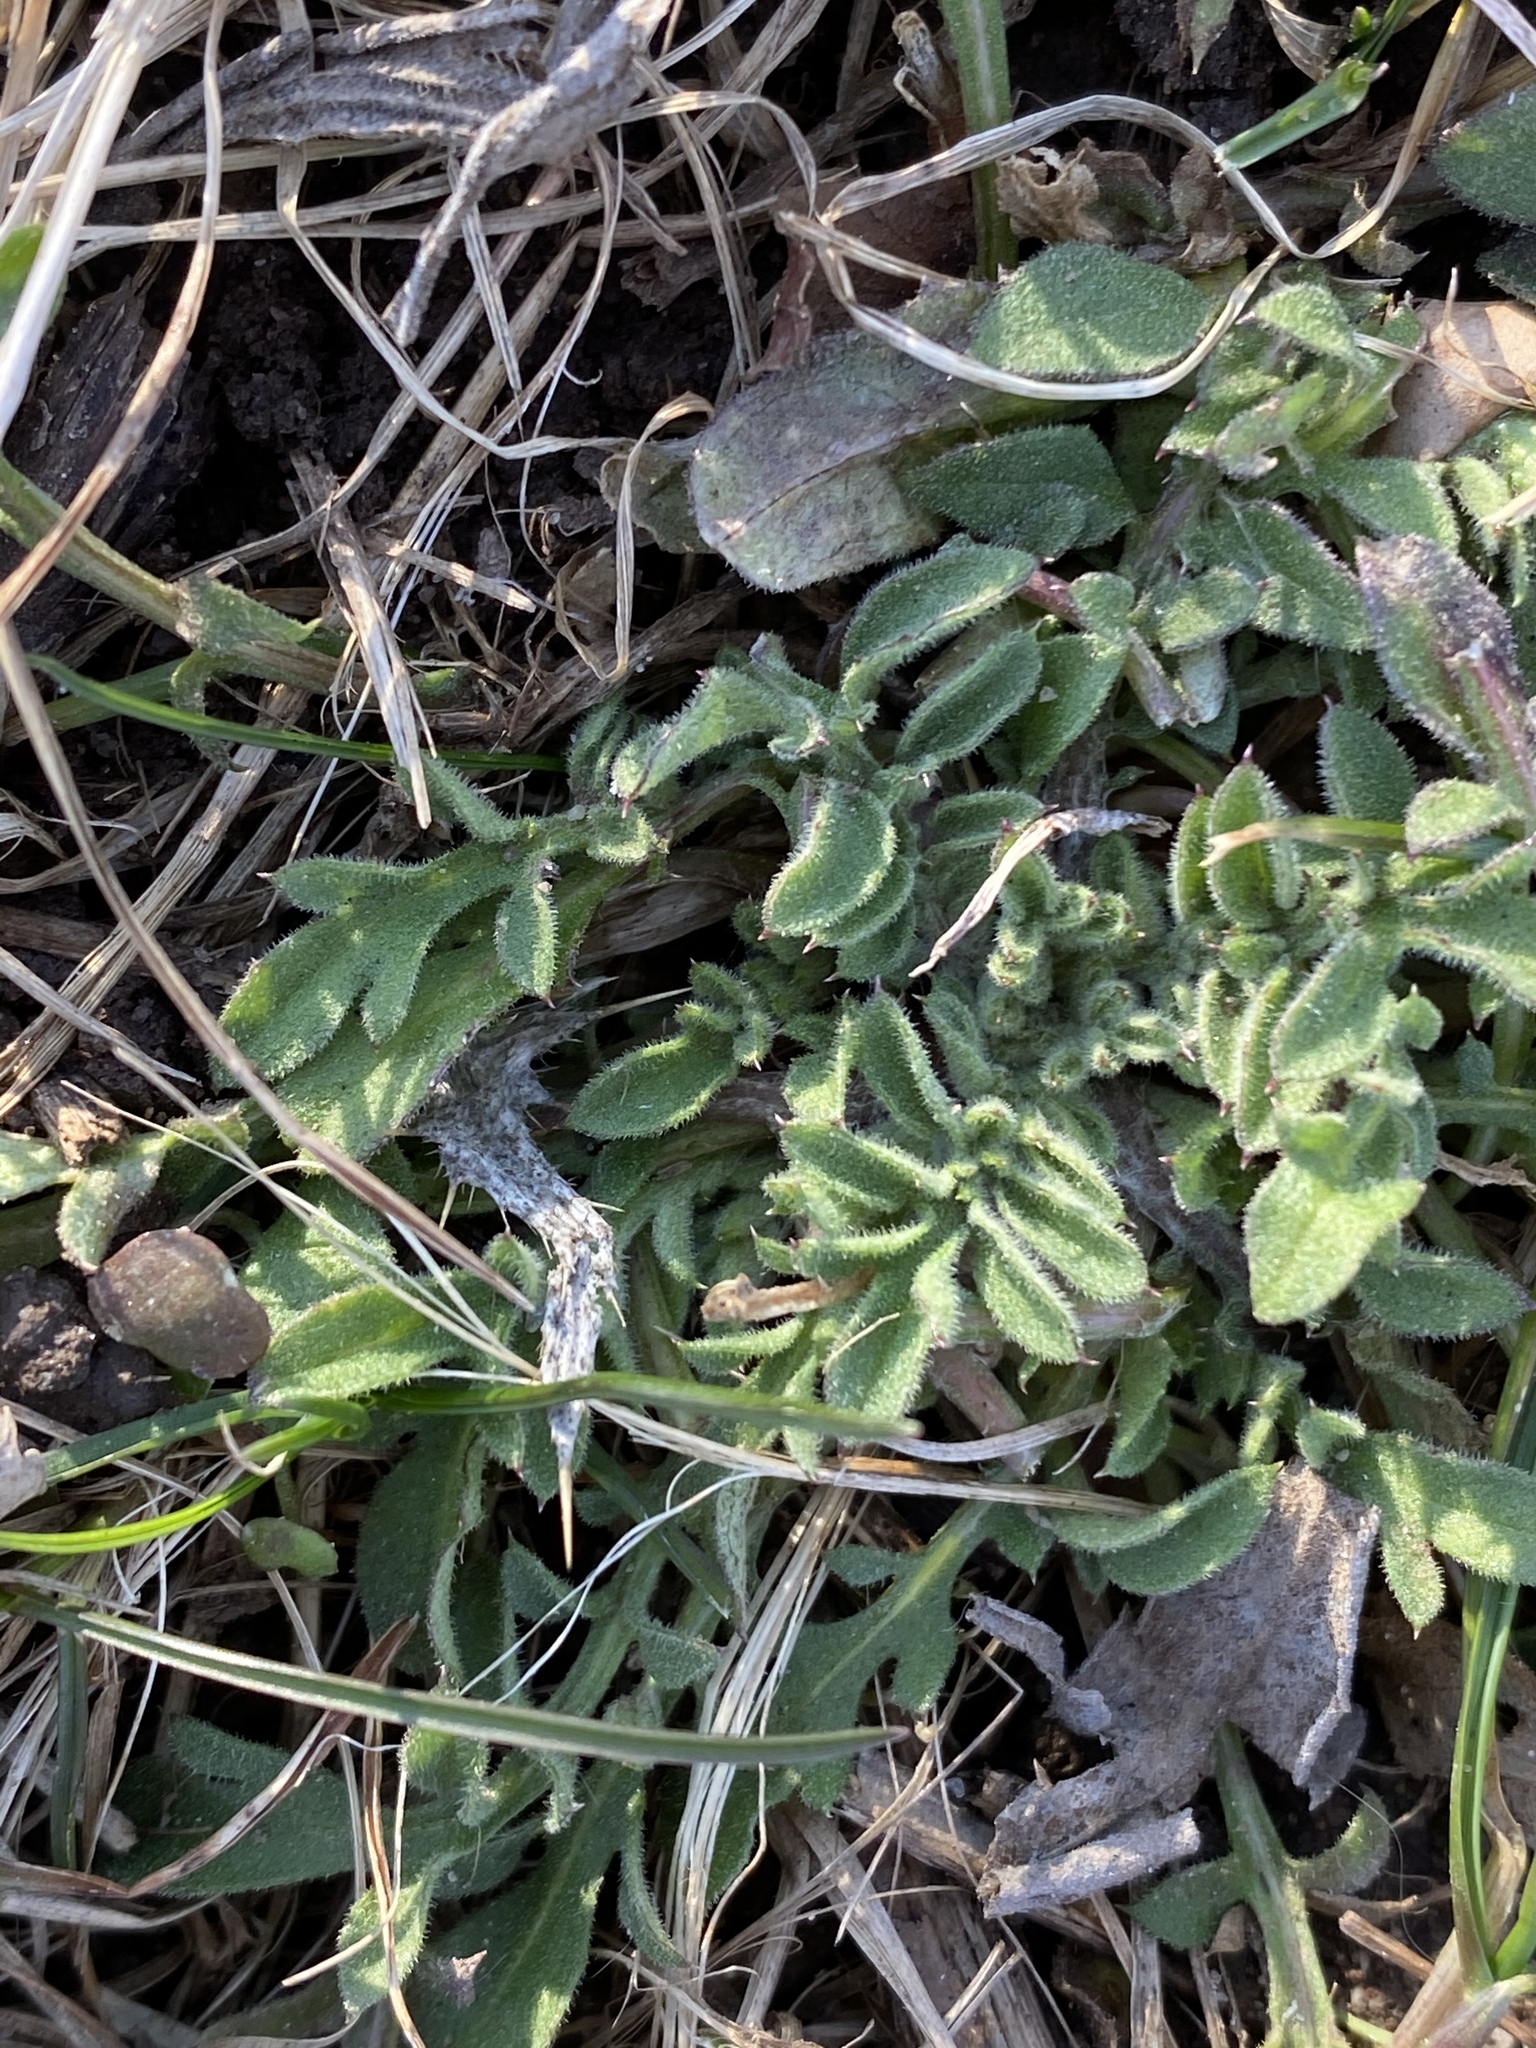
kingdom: Plantae
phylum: Tracheophyta
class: Magnoliopsida
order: Asterales
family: Asteraceae
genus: Centaurea
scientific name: Centaurea stoebe
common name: Spotted knapweed
